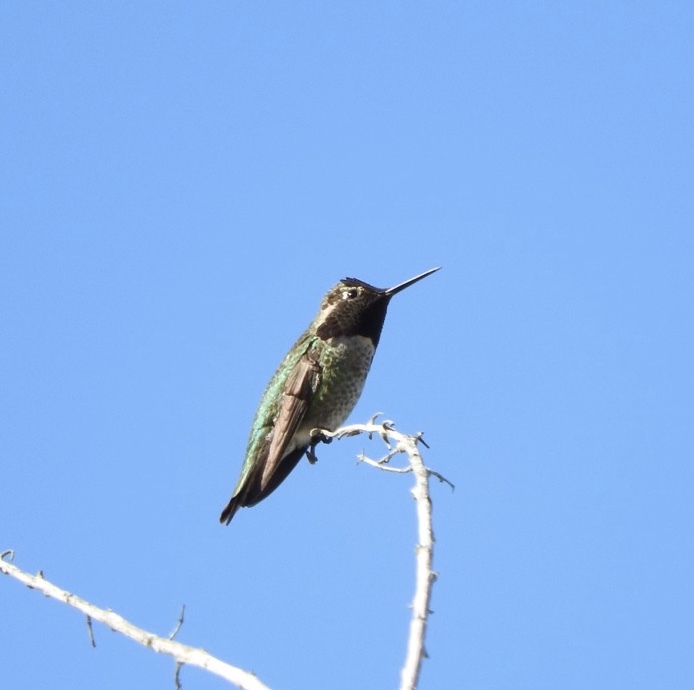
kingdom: Animalia
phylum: Chordata
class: Aves
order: Apodiformes
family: Trochilidae
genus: Calypte
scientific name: Calypte anna
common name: Anna's hummingbird
